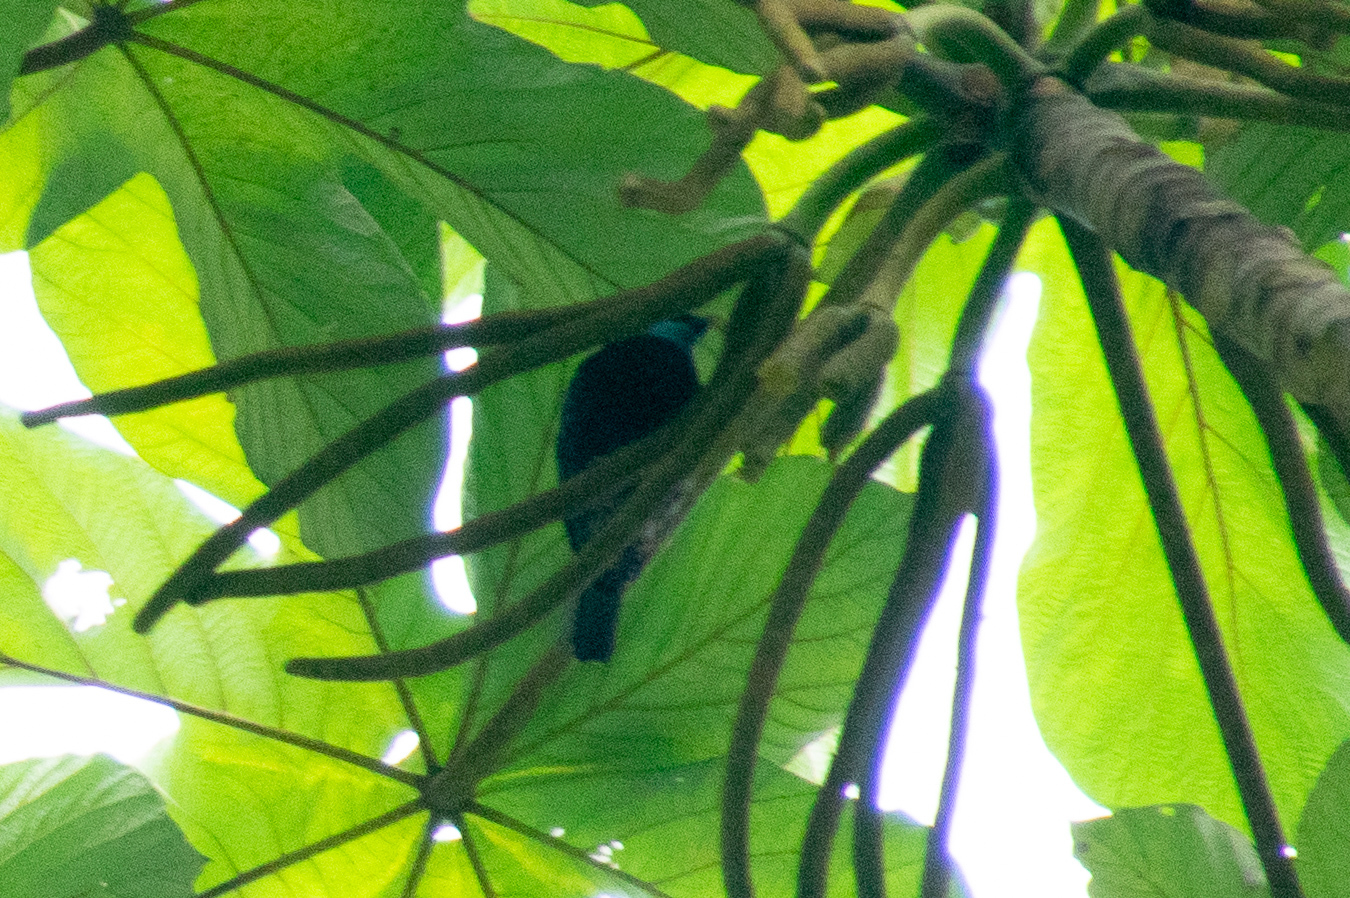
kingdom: Animalia
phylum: Chordata
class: Aves
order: Passeriformes
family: Thraupidae
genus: Stilpnia
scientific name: Stilpnia cyanicollis
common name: Blue-necked tanager
